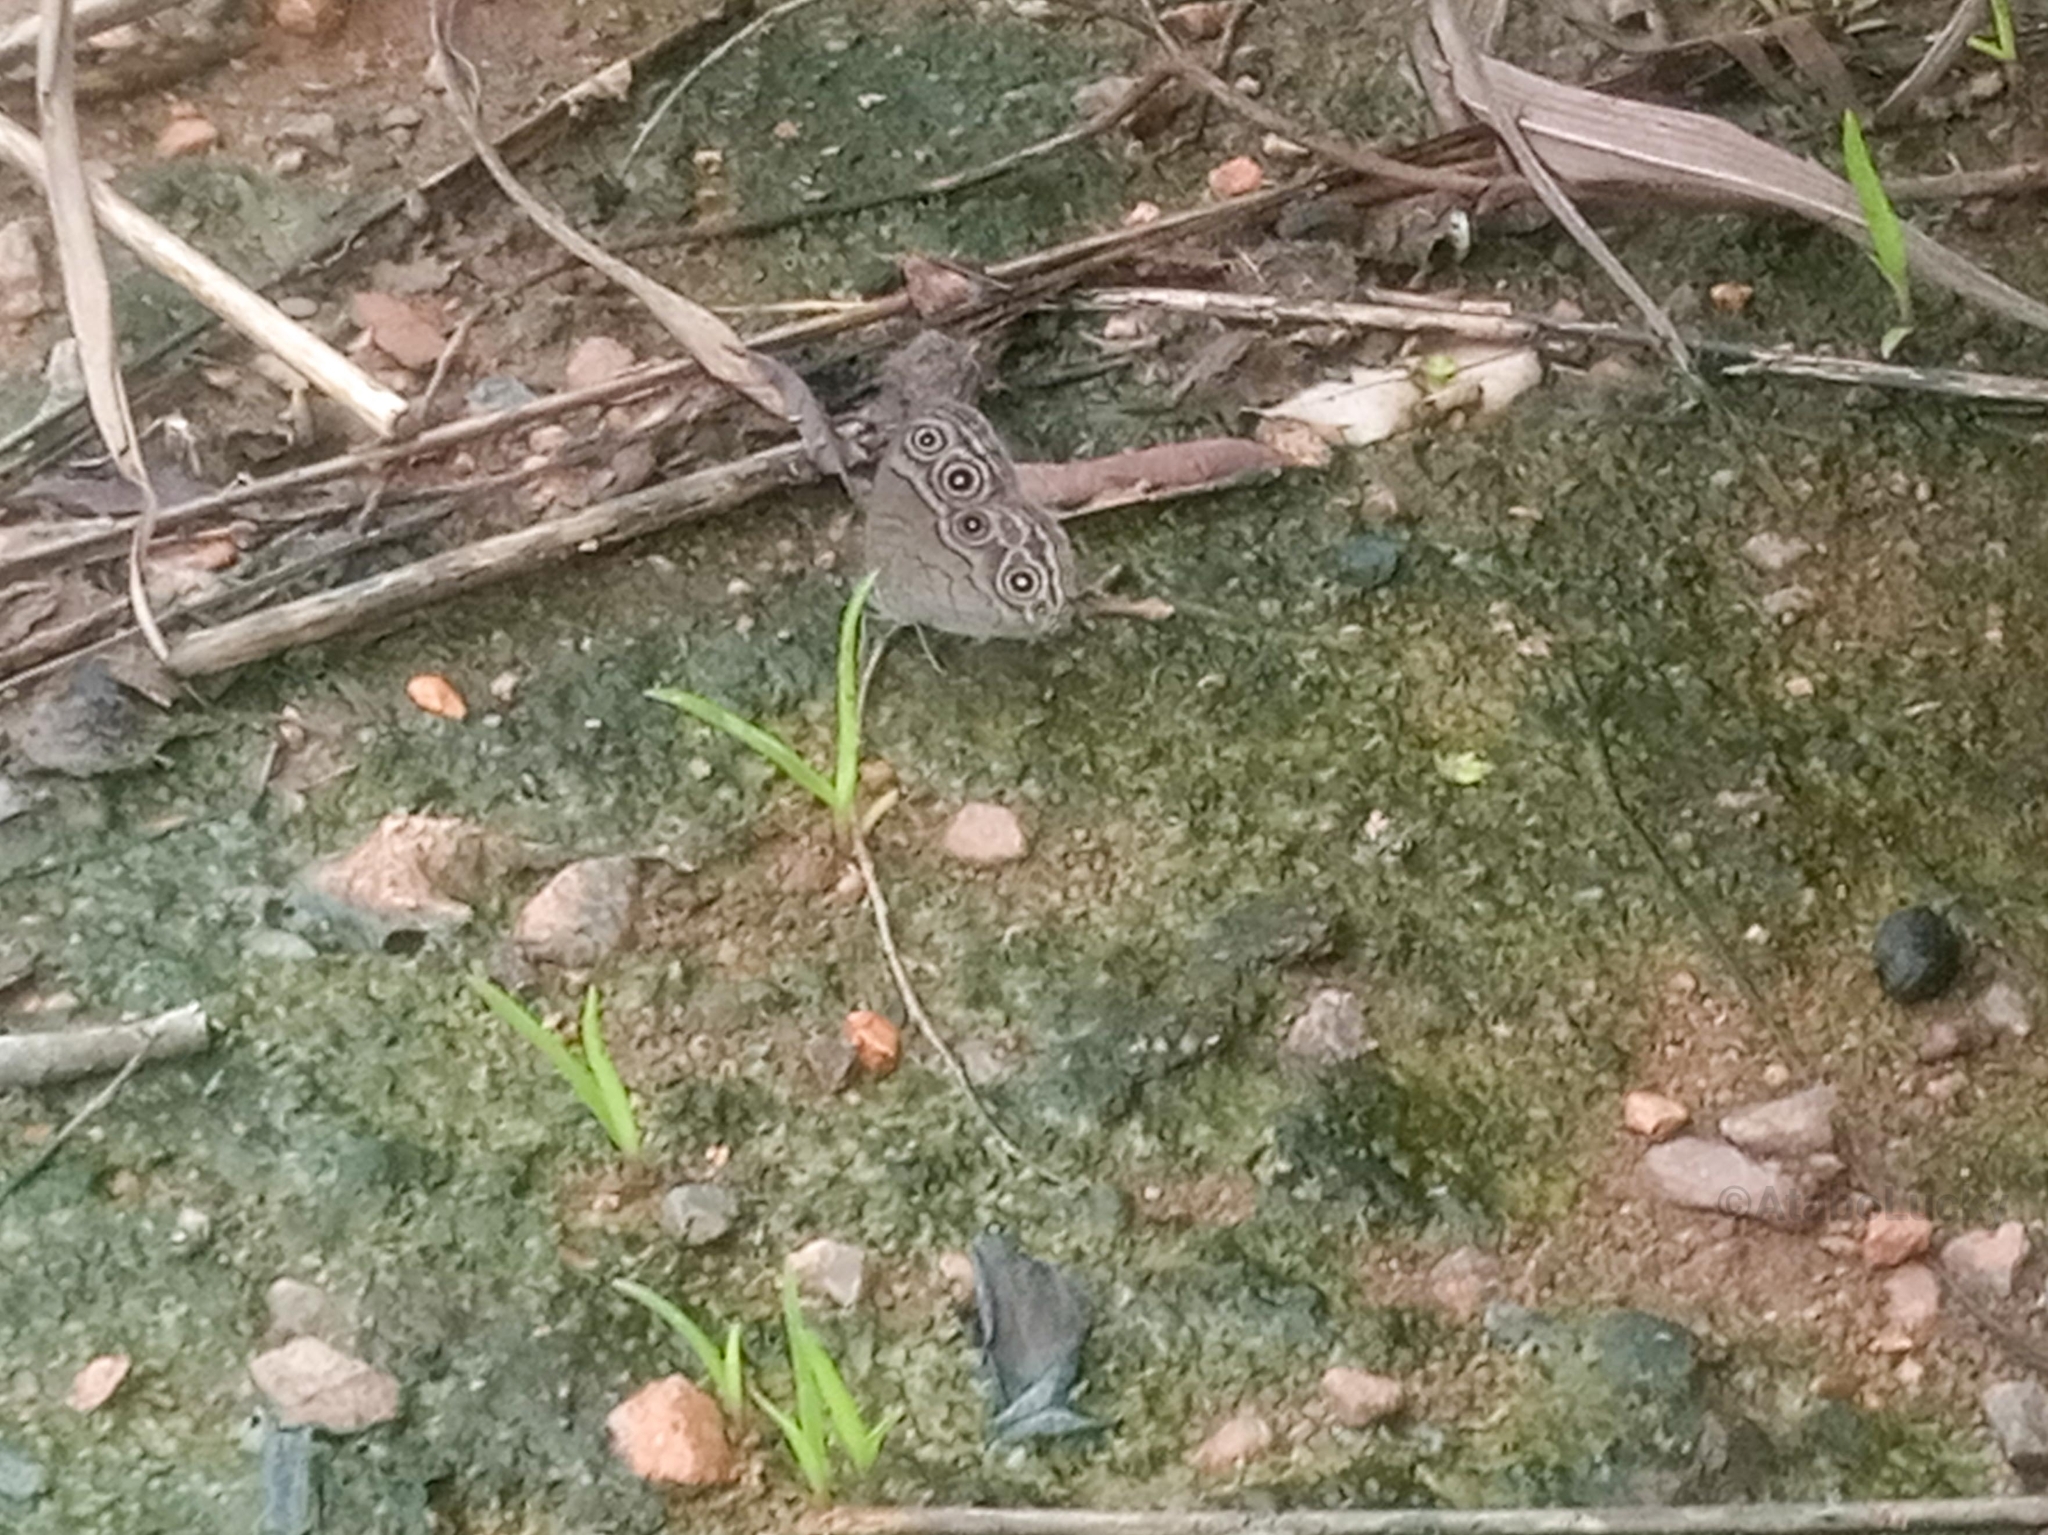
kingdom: Animalia
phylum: Arthropoda
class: Insecta
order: Lepidoptera
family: Nymphalidae
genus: Bicyclus
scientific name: Bicyclus pavonis
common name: Rock bush brown
